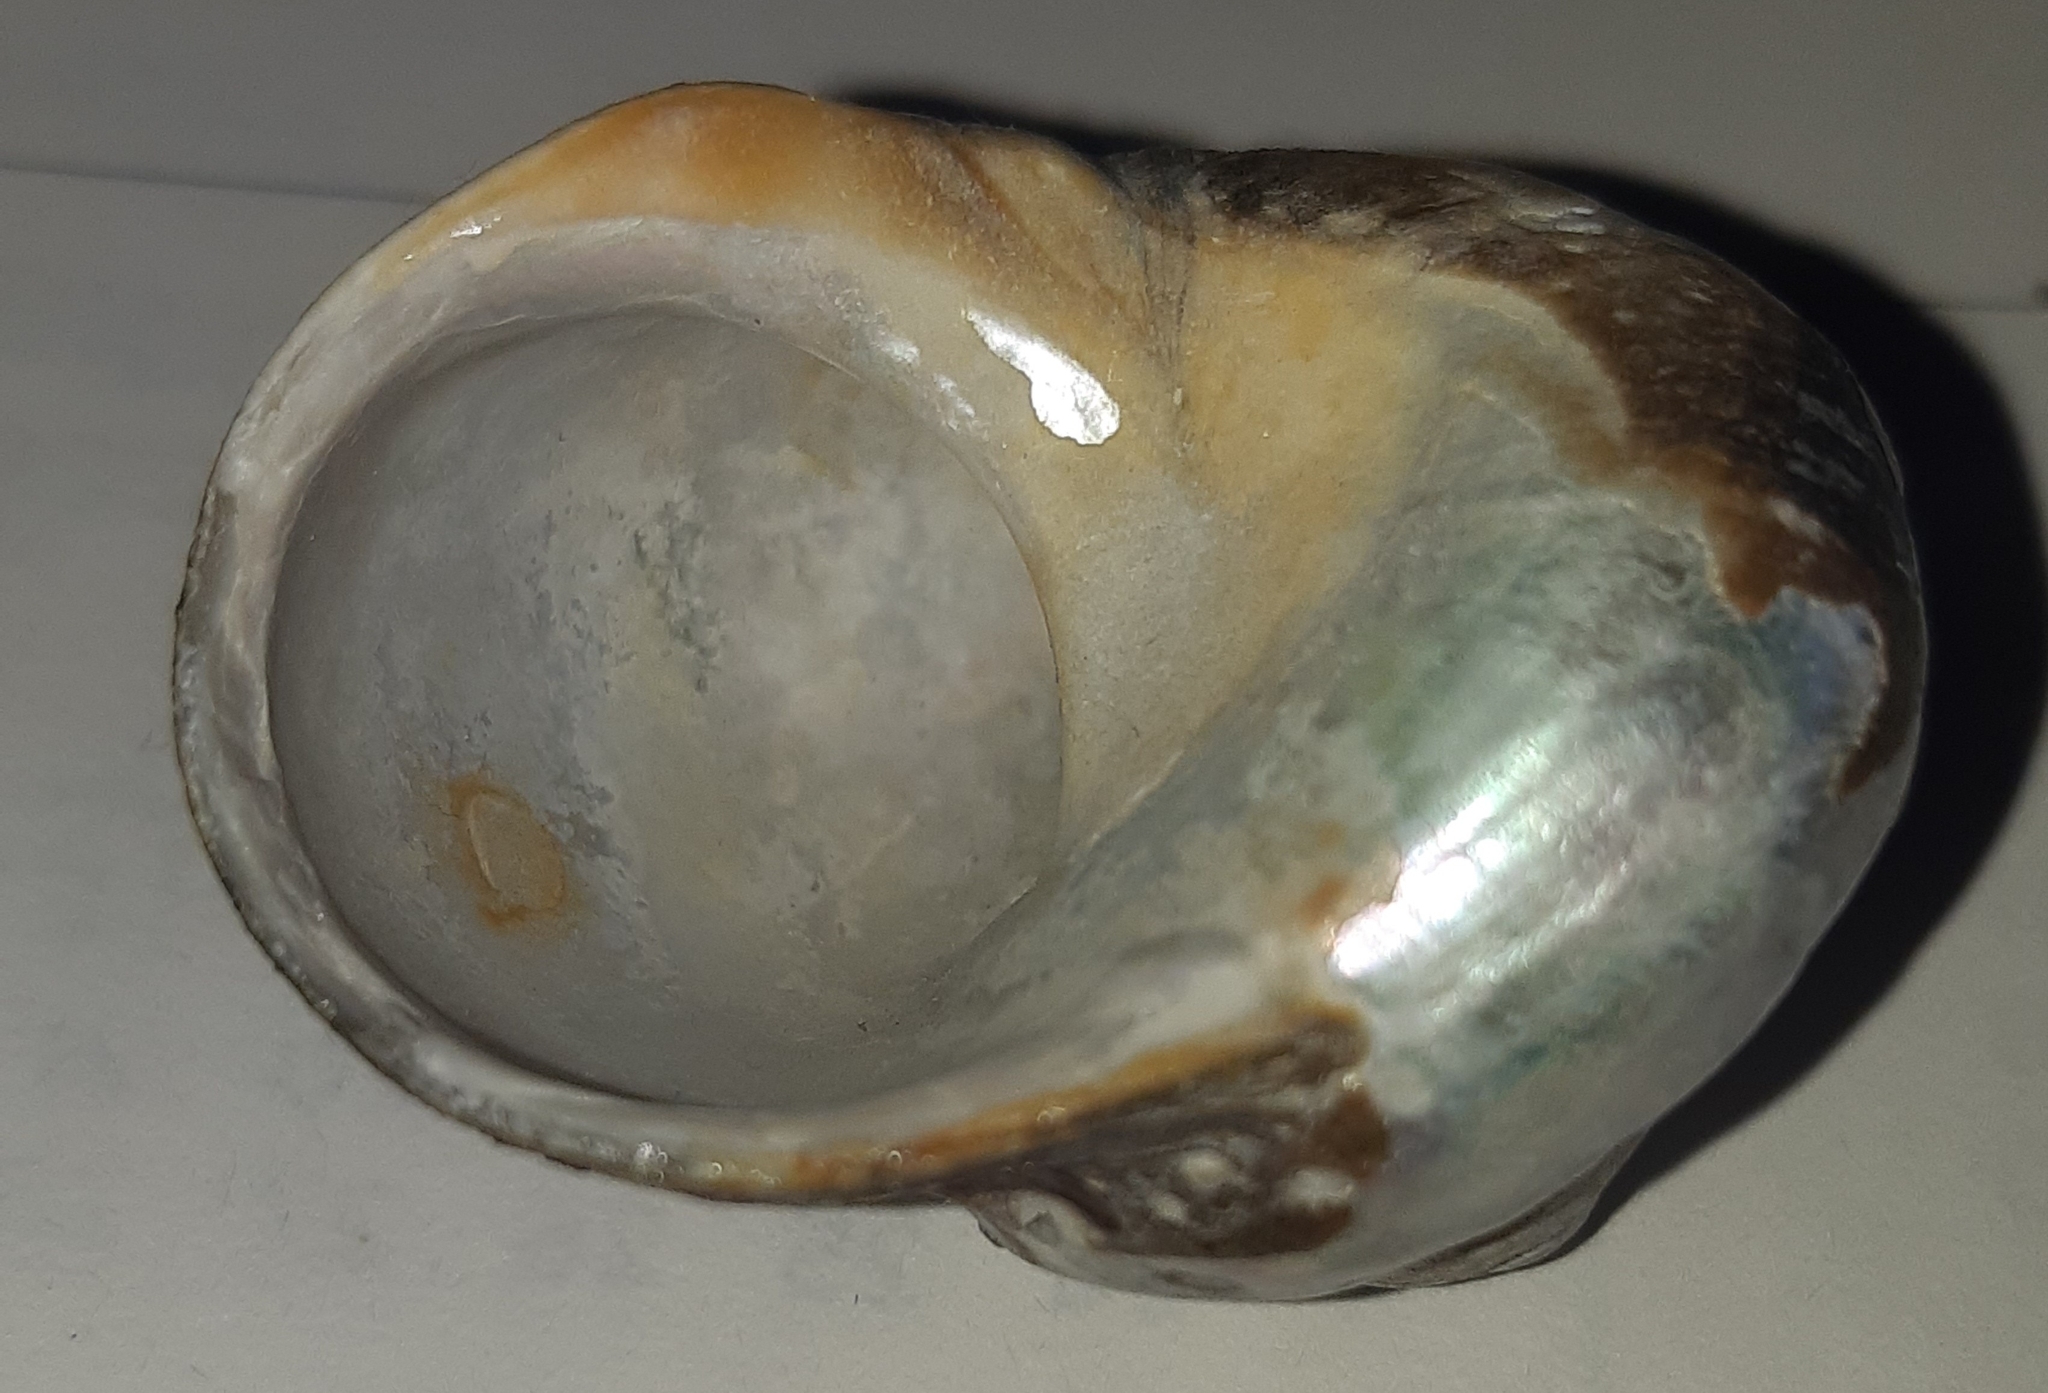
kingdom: Animalia
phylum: Mollusca
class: Gastropoda
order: Trochida
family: Turbinidae
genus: Lunella
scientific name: Lunella smaragda
